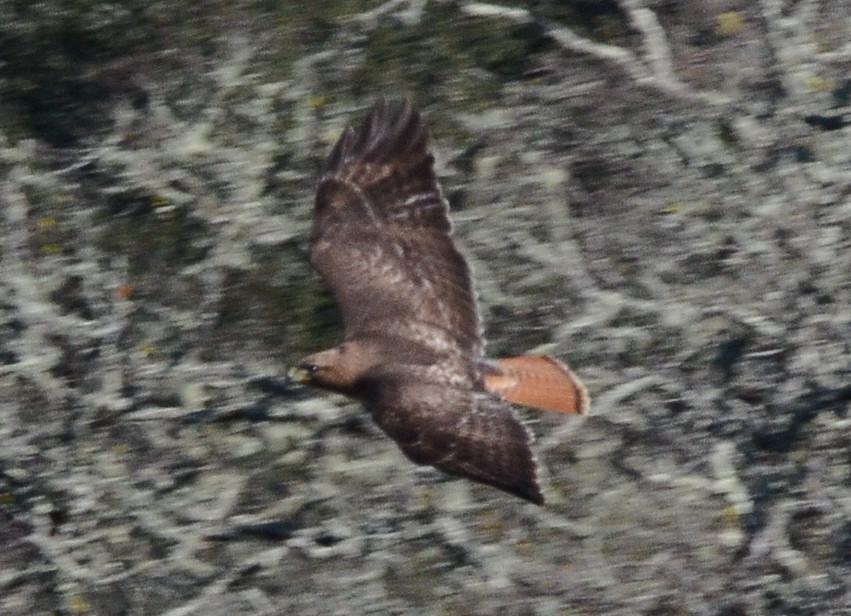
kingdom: Animalia
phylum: Chordata
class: Aves
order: Accipitriformes
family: Accipitridae
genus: Buteo
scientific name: Buteo jamaicensis
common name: Red-tailed hawk
